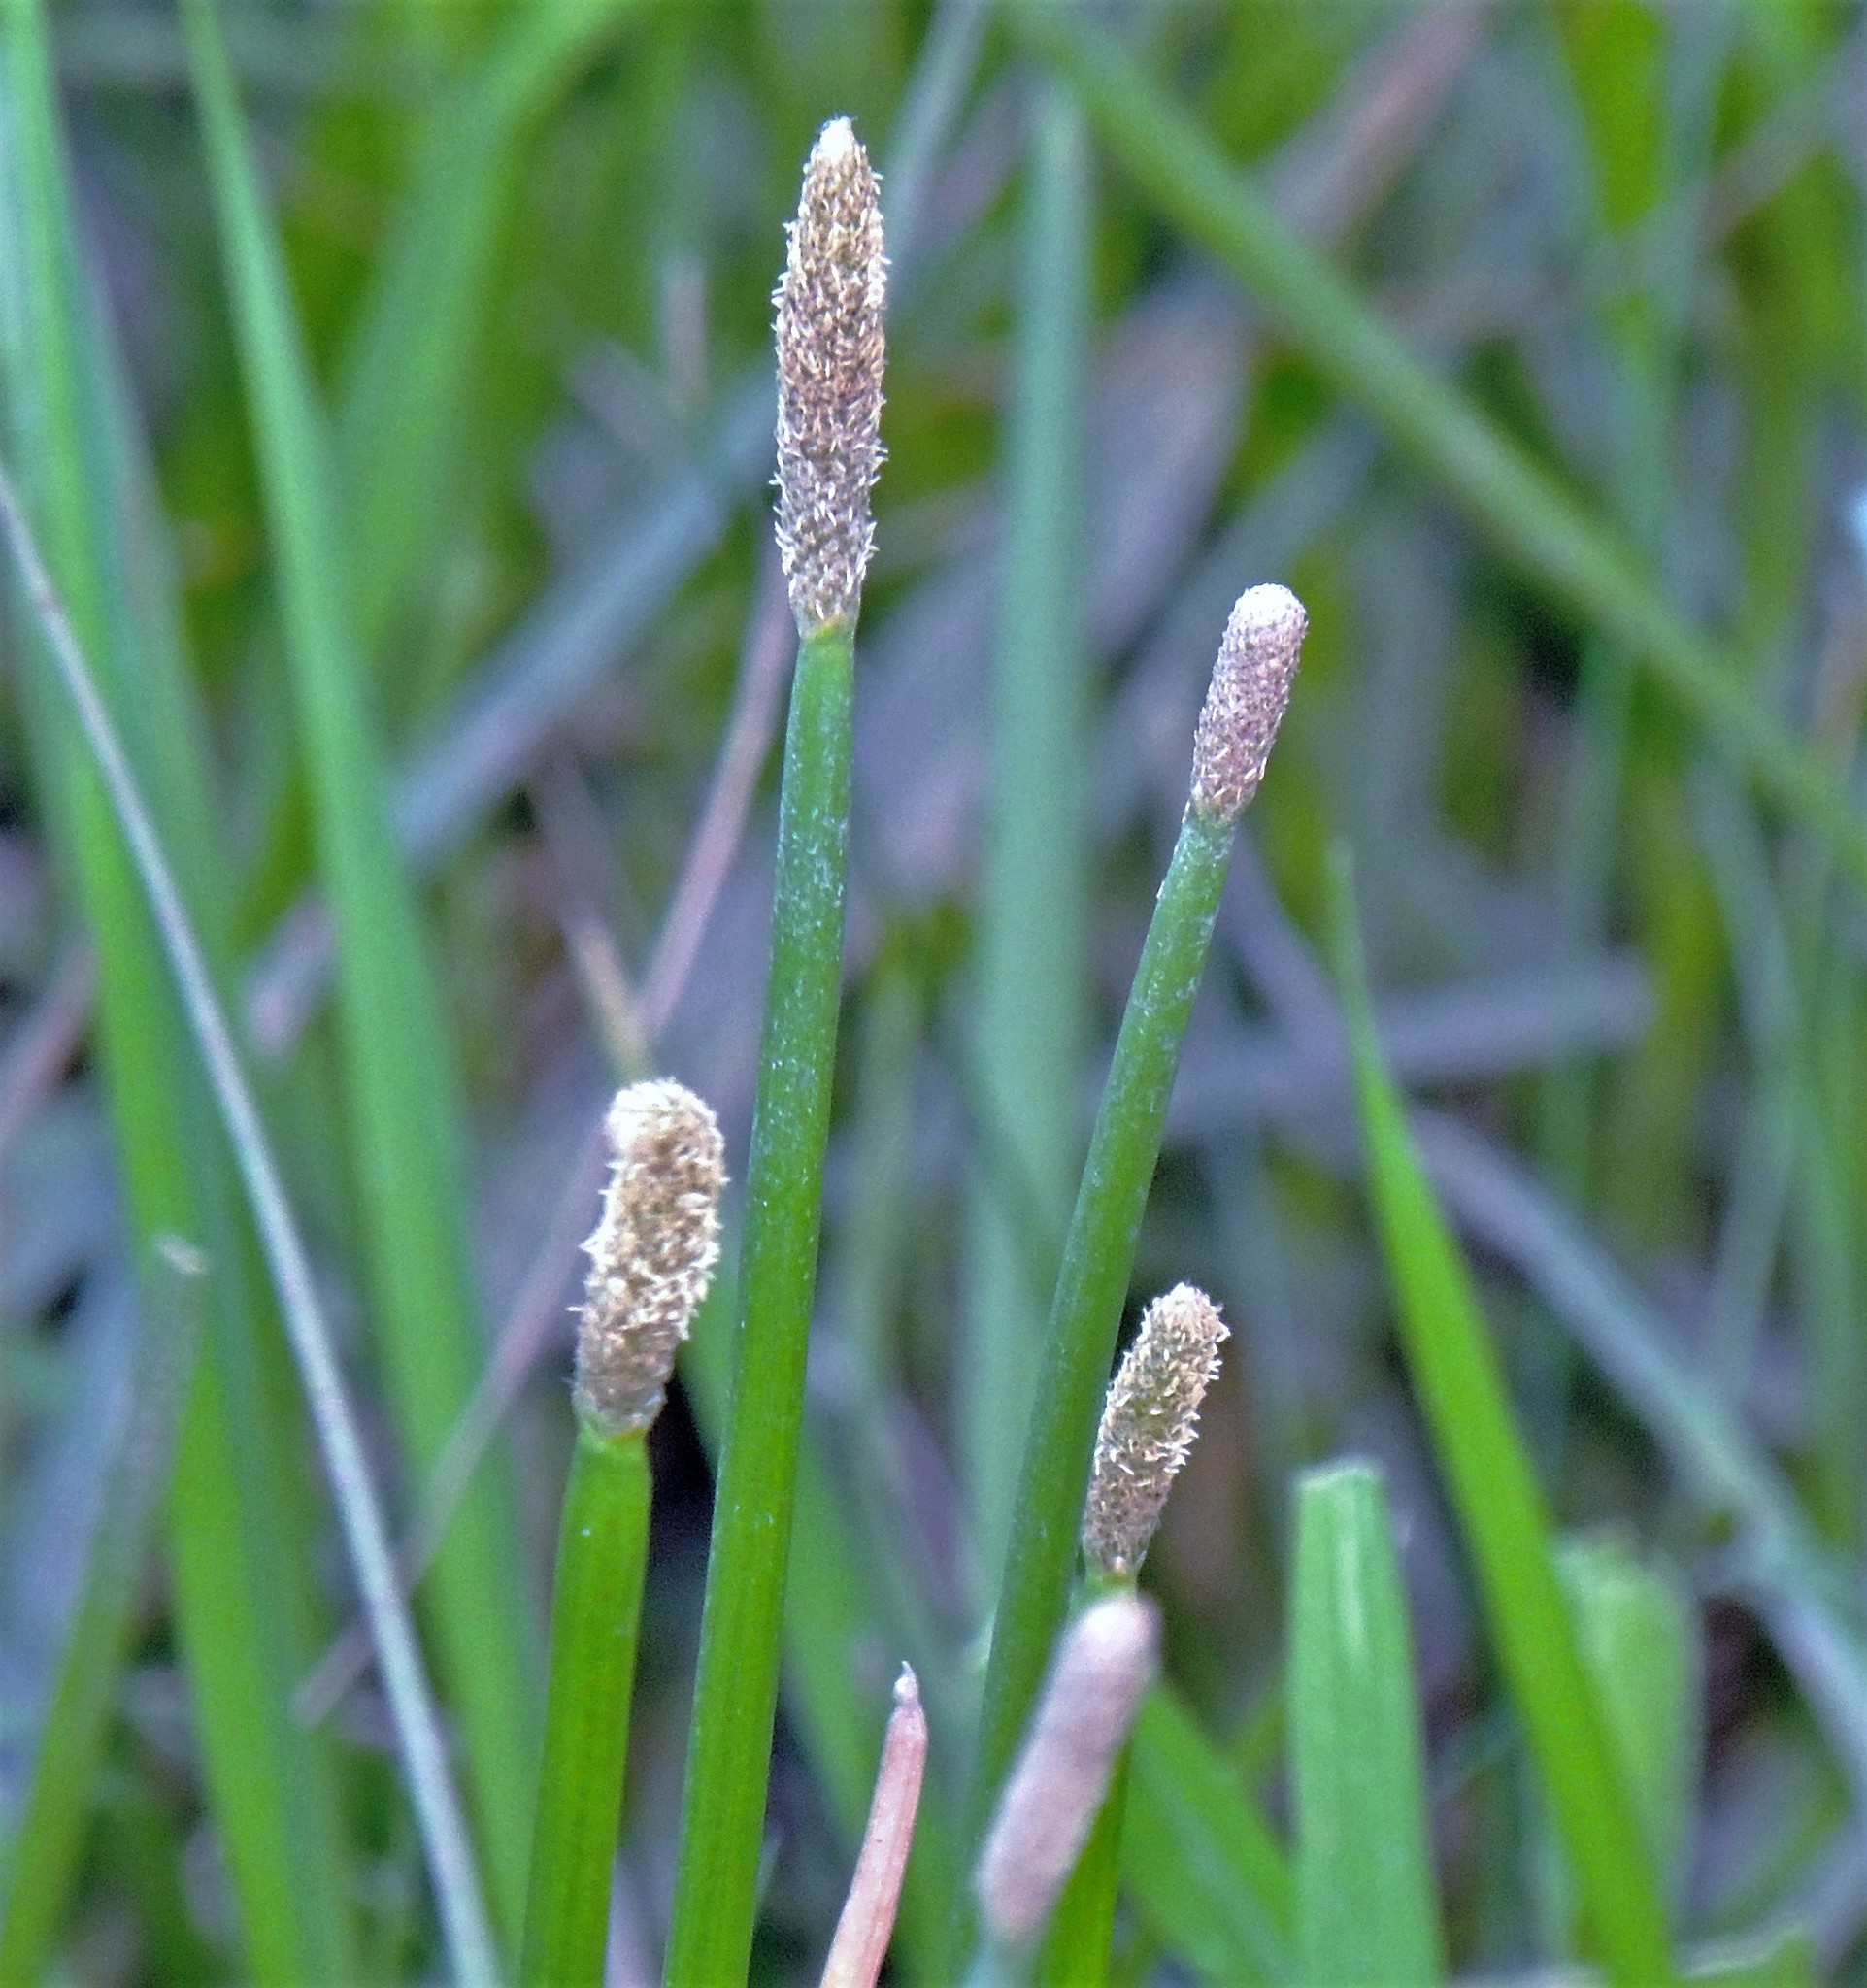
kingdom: Plantae
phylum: Tracheophyta
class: Liliopsida
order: Poales
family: Cyperaceae
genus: Eleocharis
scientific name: Eleocharis elegans
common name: Elegant spike-rush
